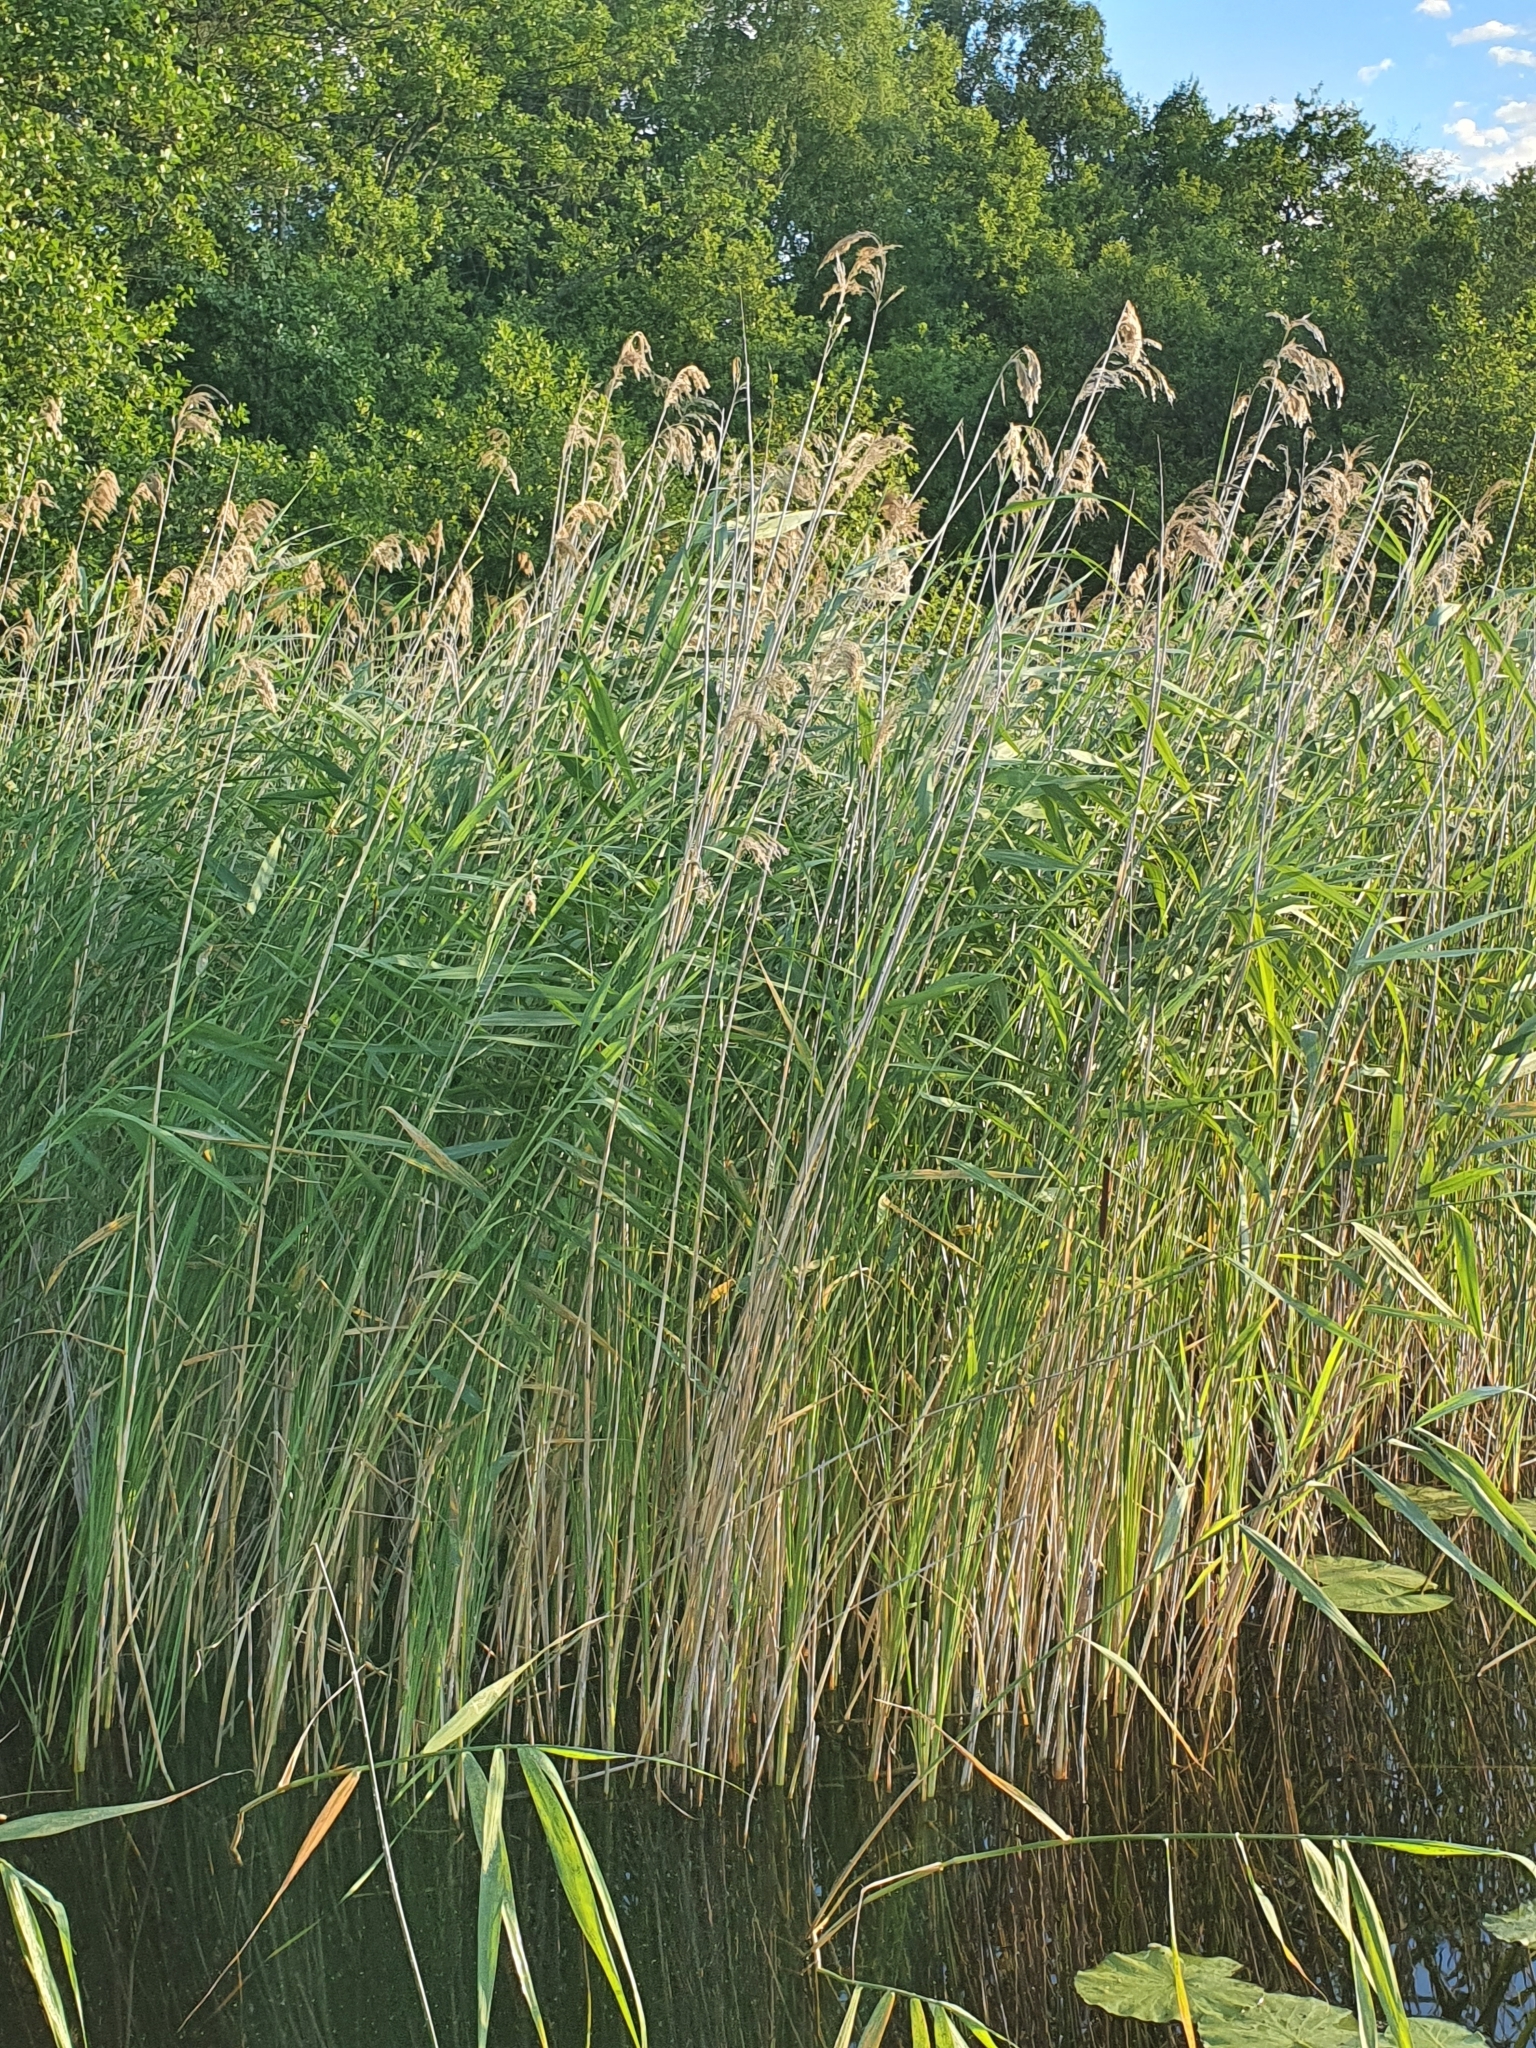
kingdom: Plantae
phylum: Tracheophyta
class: Liliopsida
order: Poales
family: Poaceae
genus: Phragmites
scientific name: Phragmites australis
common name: Common reed
